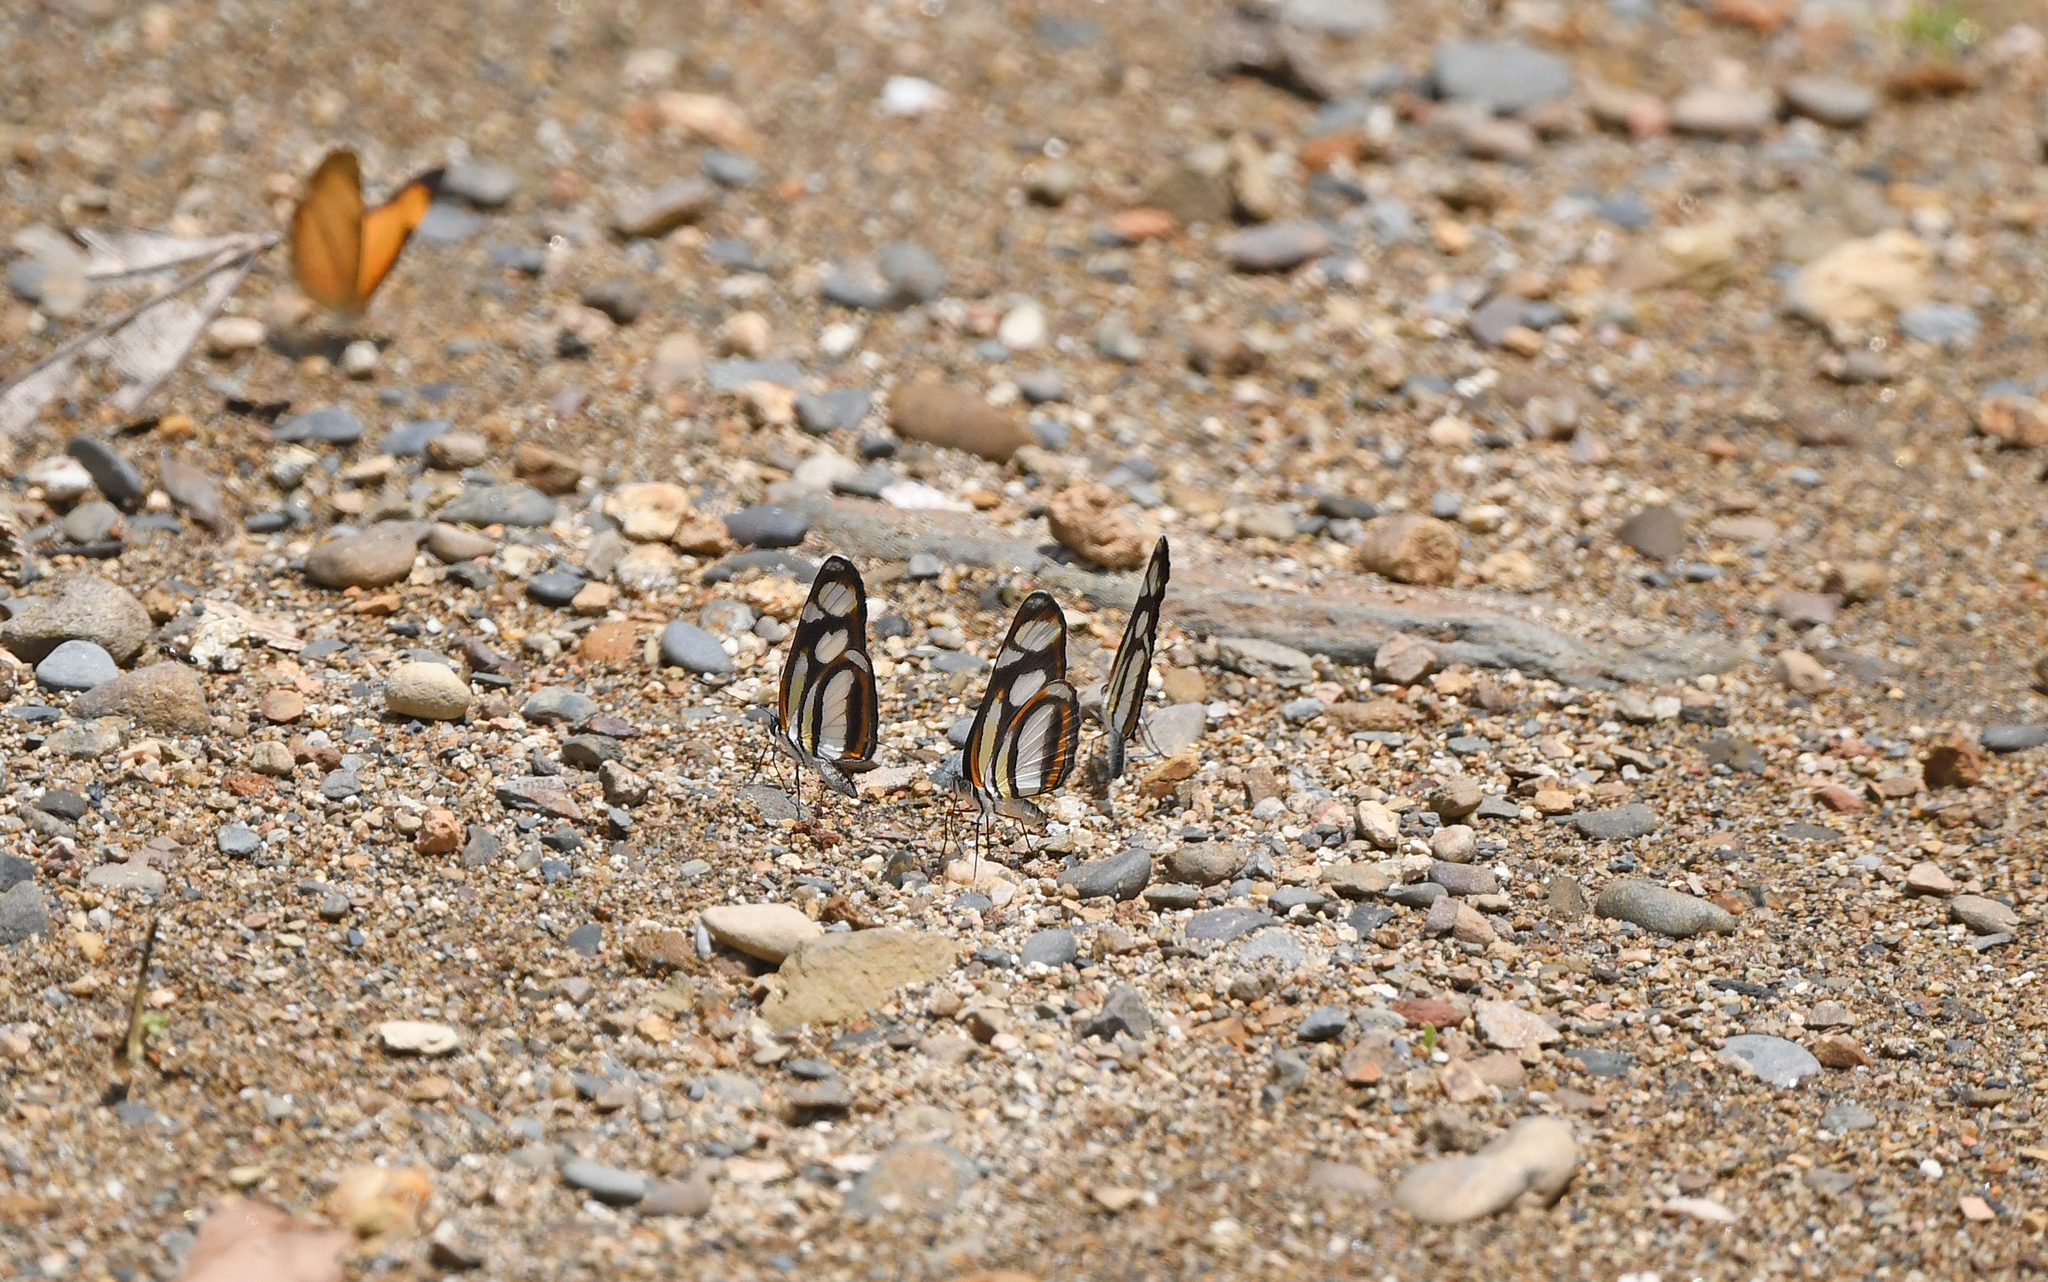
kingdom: Animalia
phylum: Arthropoda
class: Insecta
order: Lepidoptera
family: Nymphalidae
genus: Eresia
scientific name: Eresia clio
